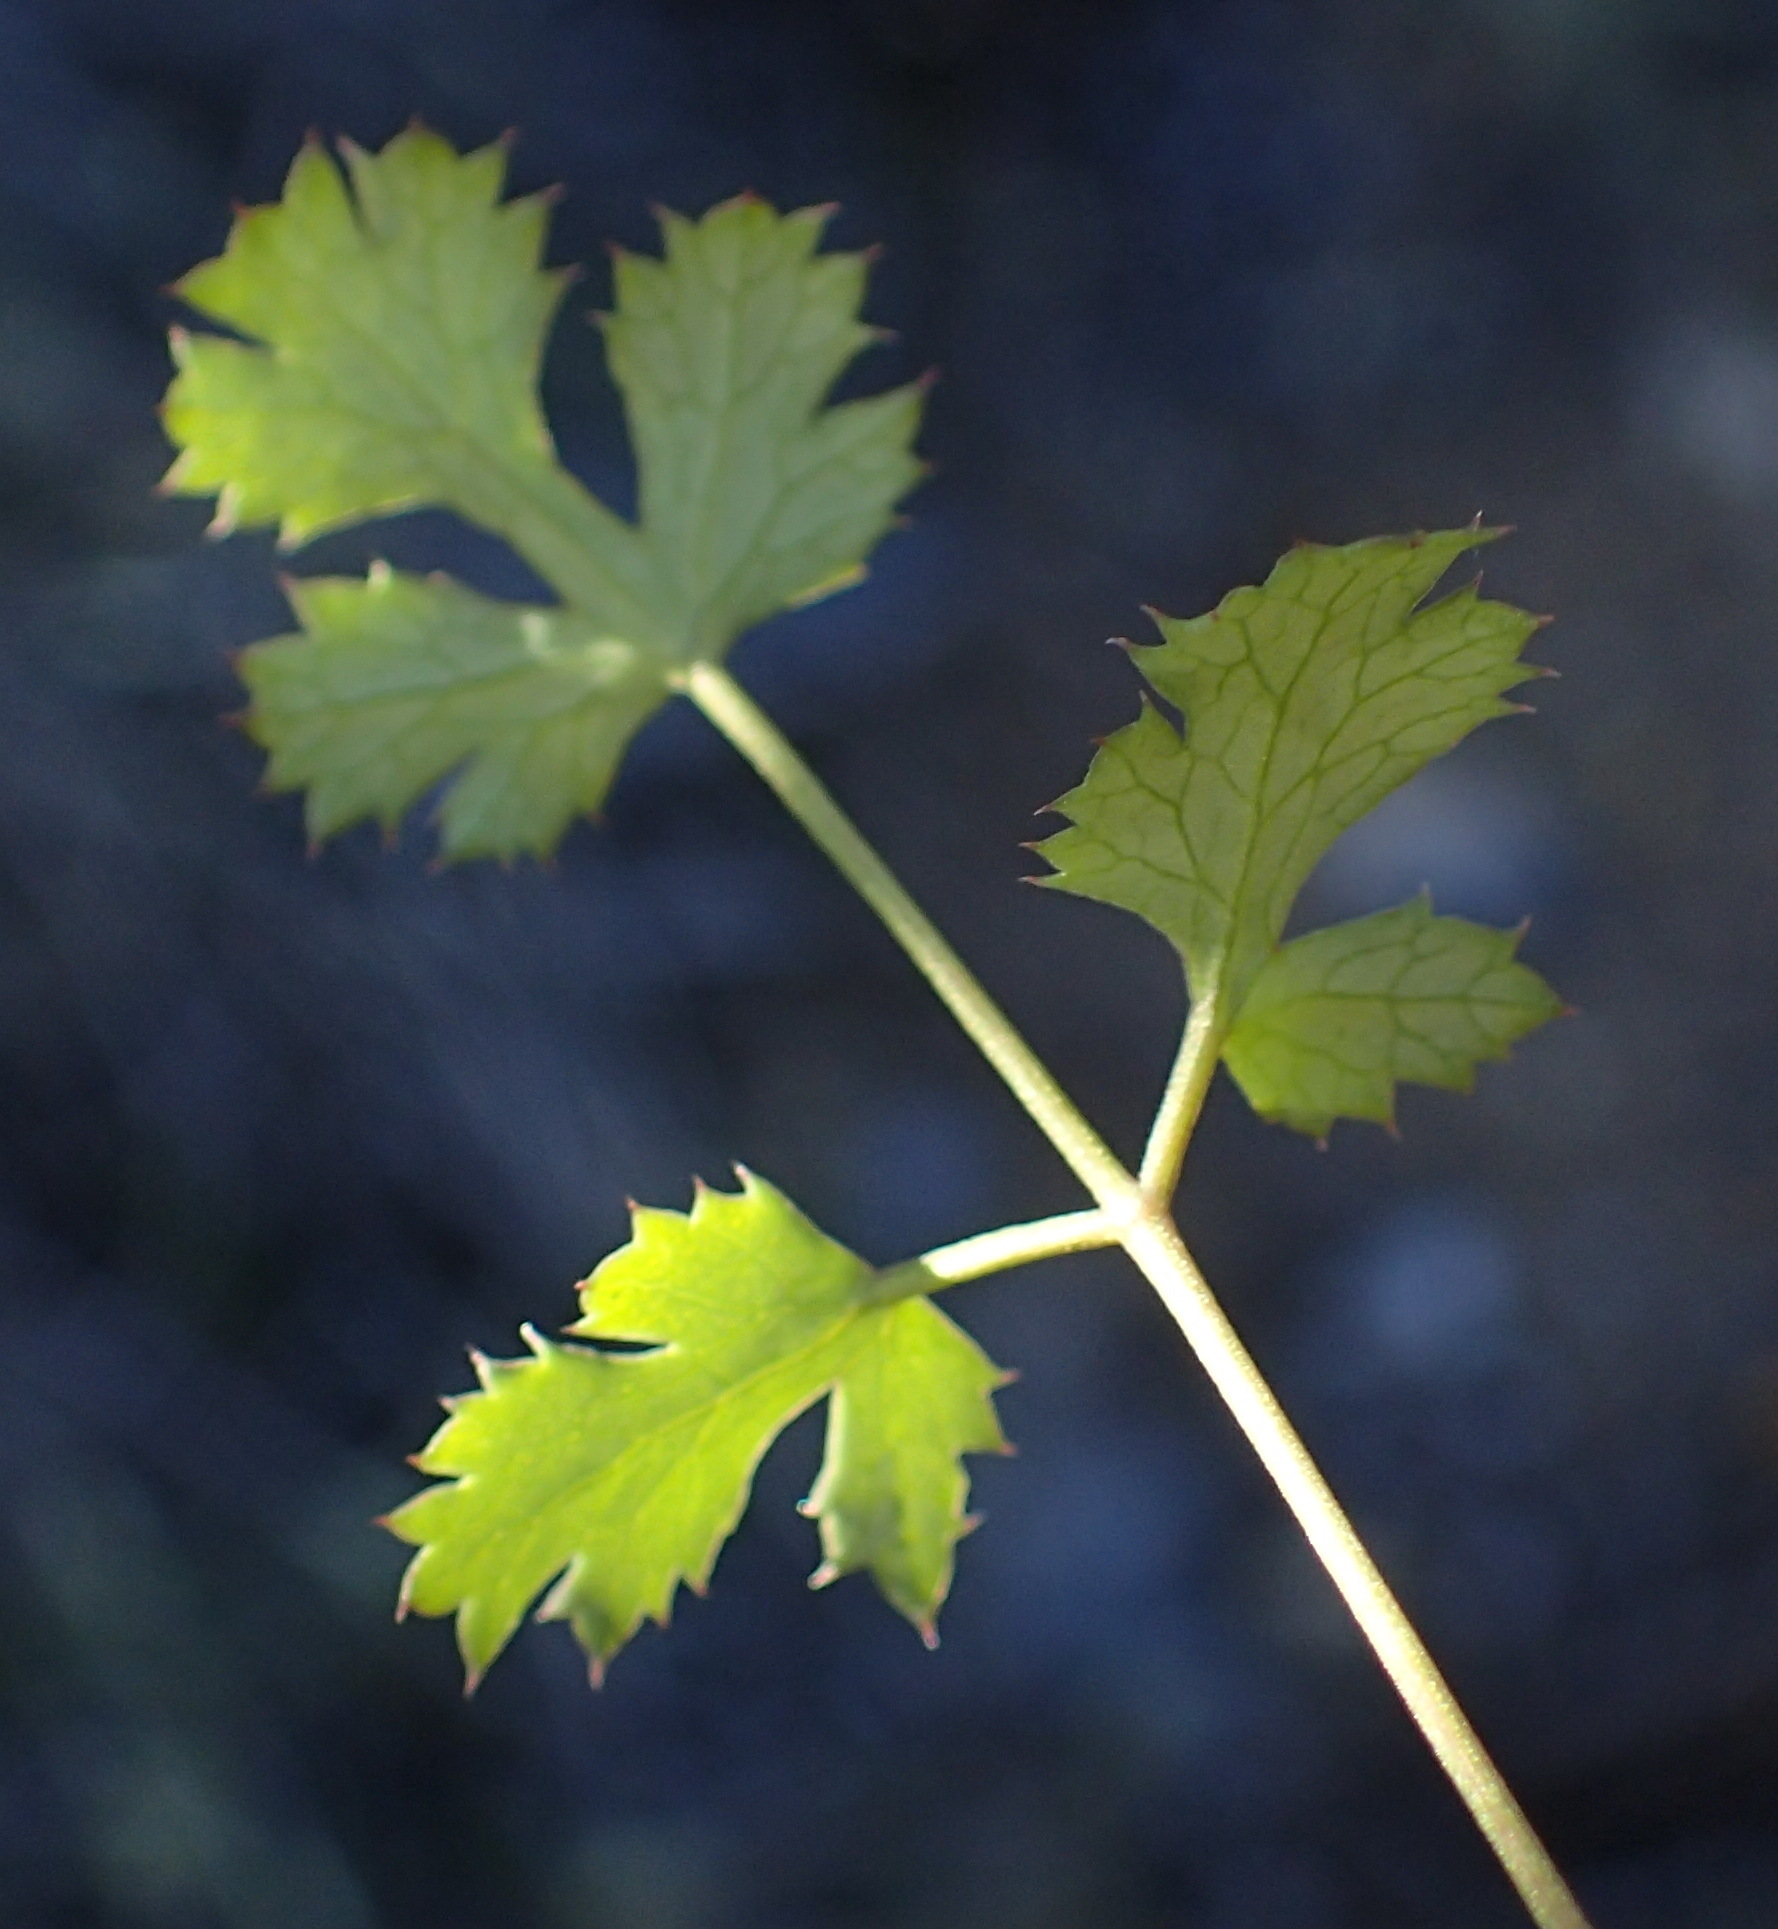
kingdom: Plantae
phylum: Tracheophyta
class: Magnoliopsida
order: Apiales
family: Apiaceae
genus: Chamarea
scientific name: Chamarea gracillima
